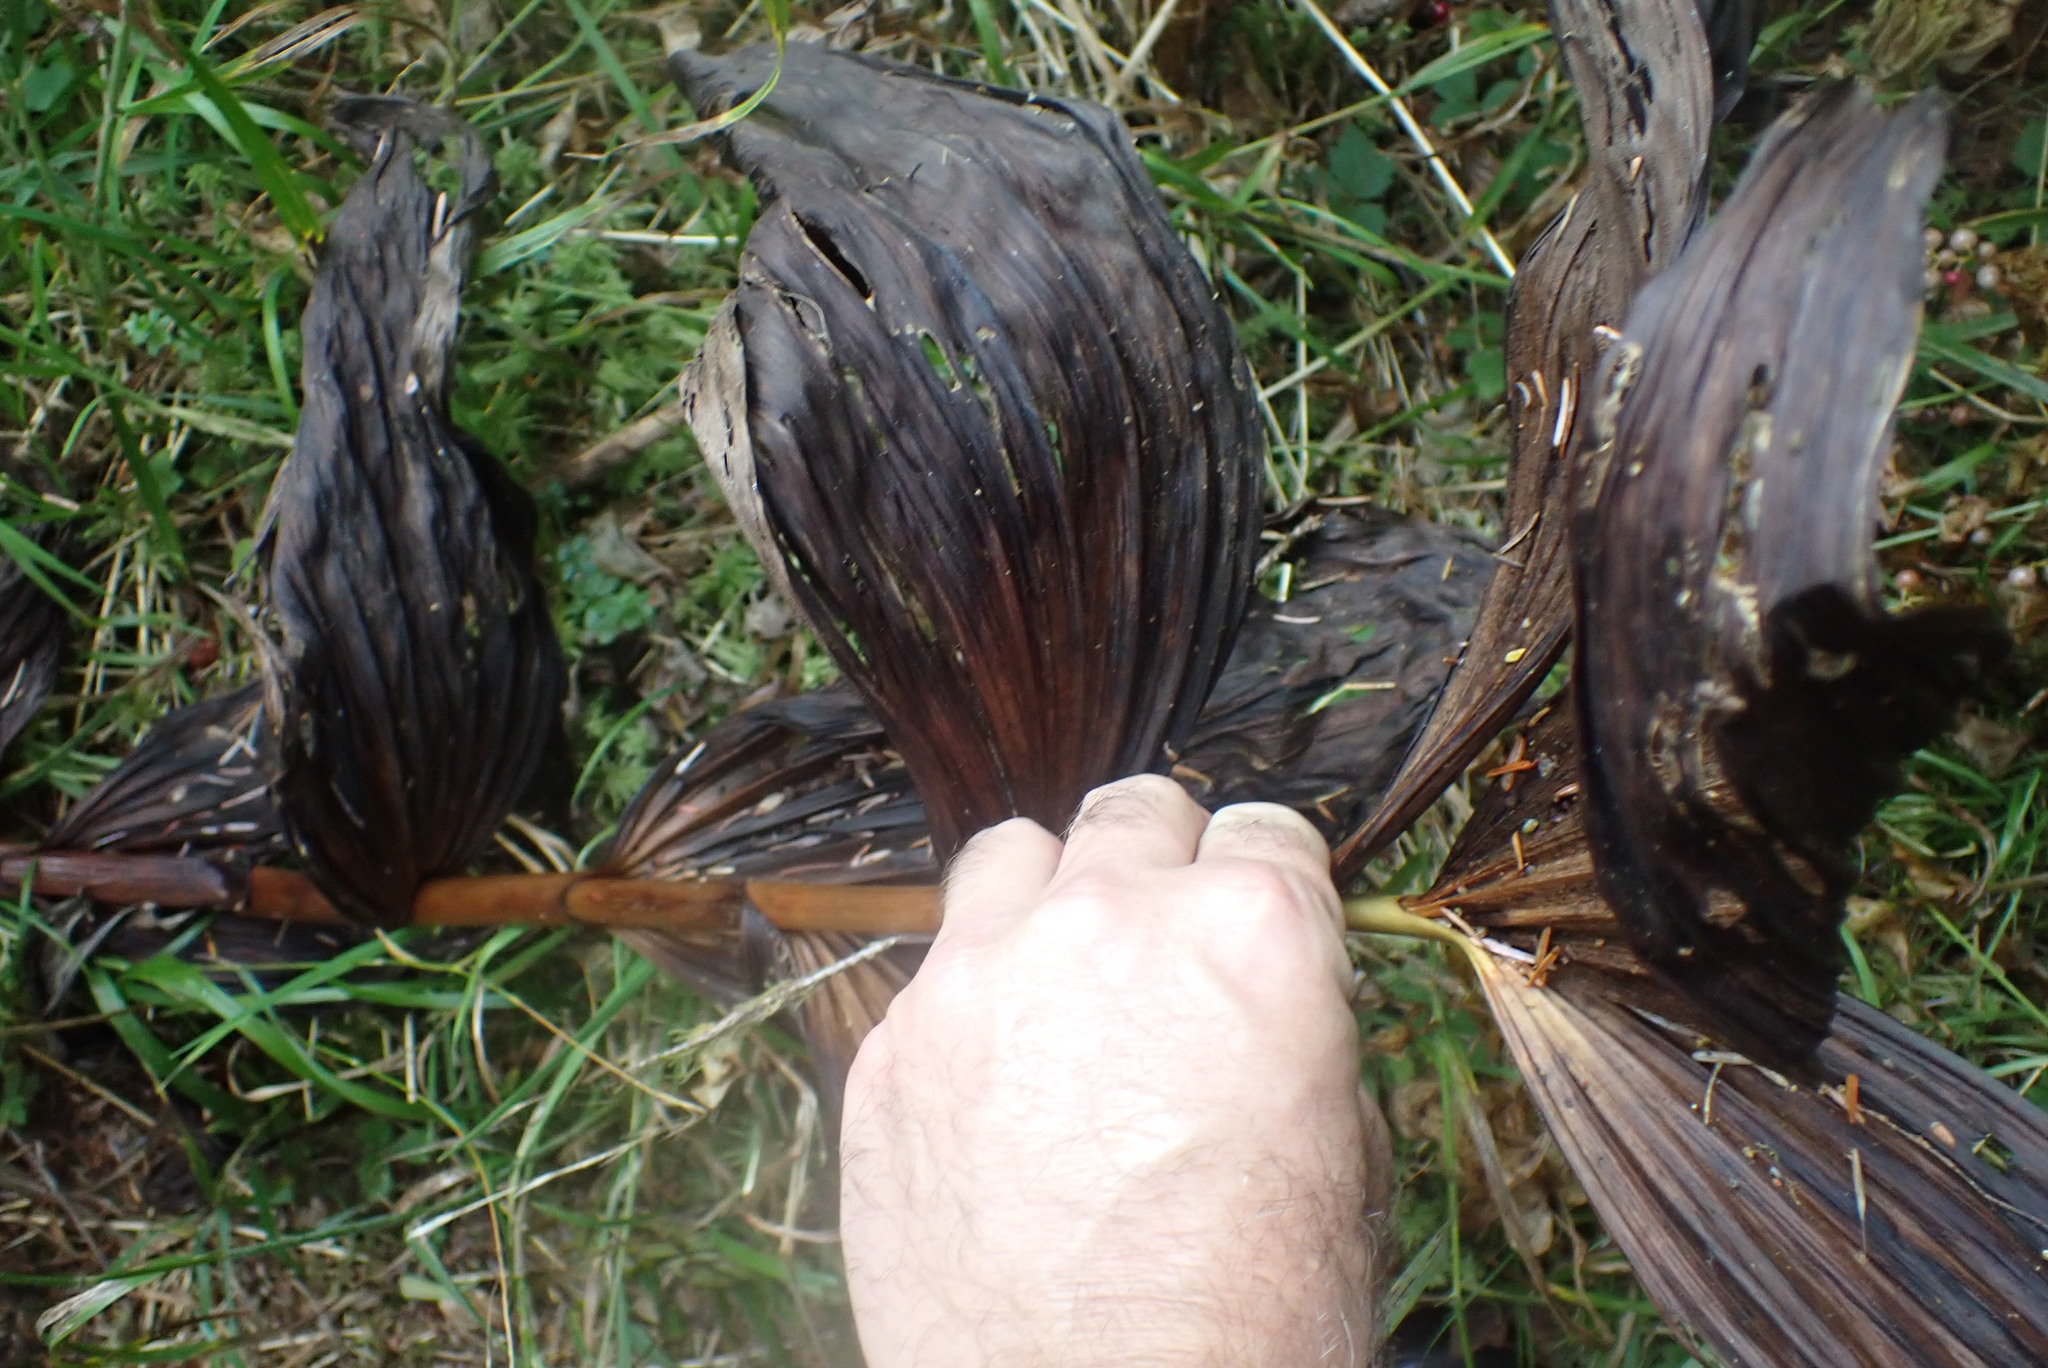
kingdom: Plantae
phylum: Tracheophyta
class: Liliopsida
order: Liliales
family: Melanthiaceae
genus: Veratrum
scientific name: Veratrum viride
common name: American false hellebore
